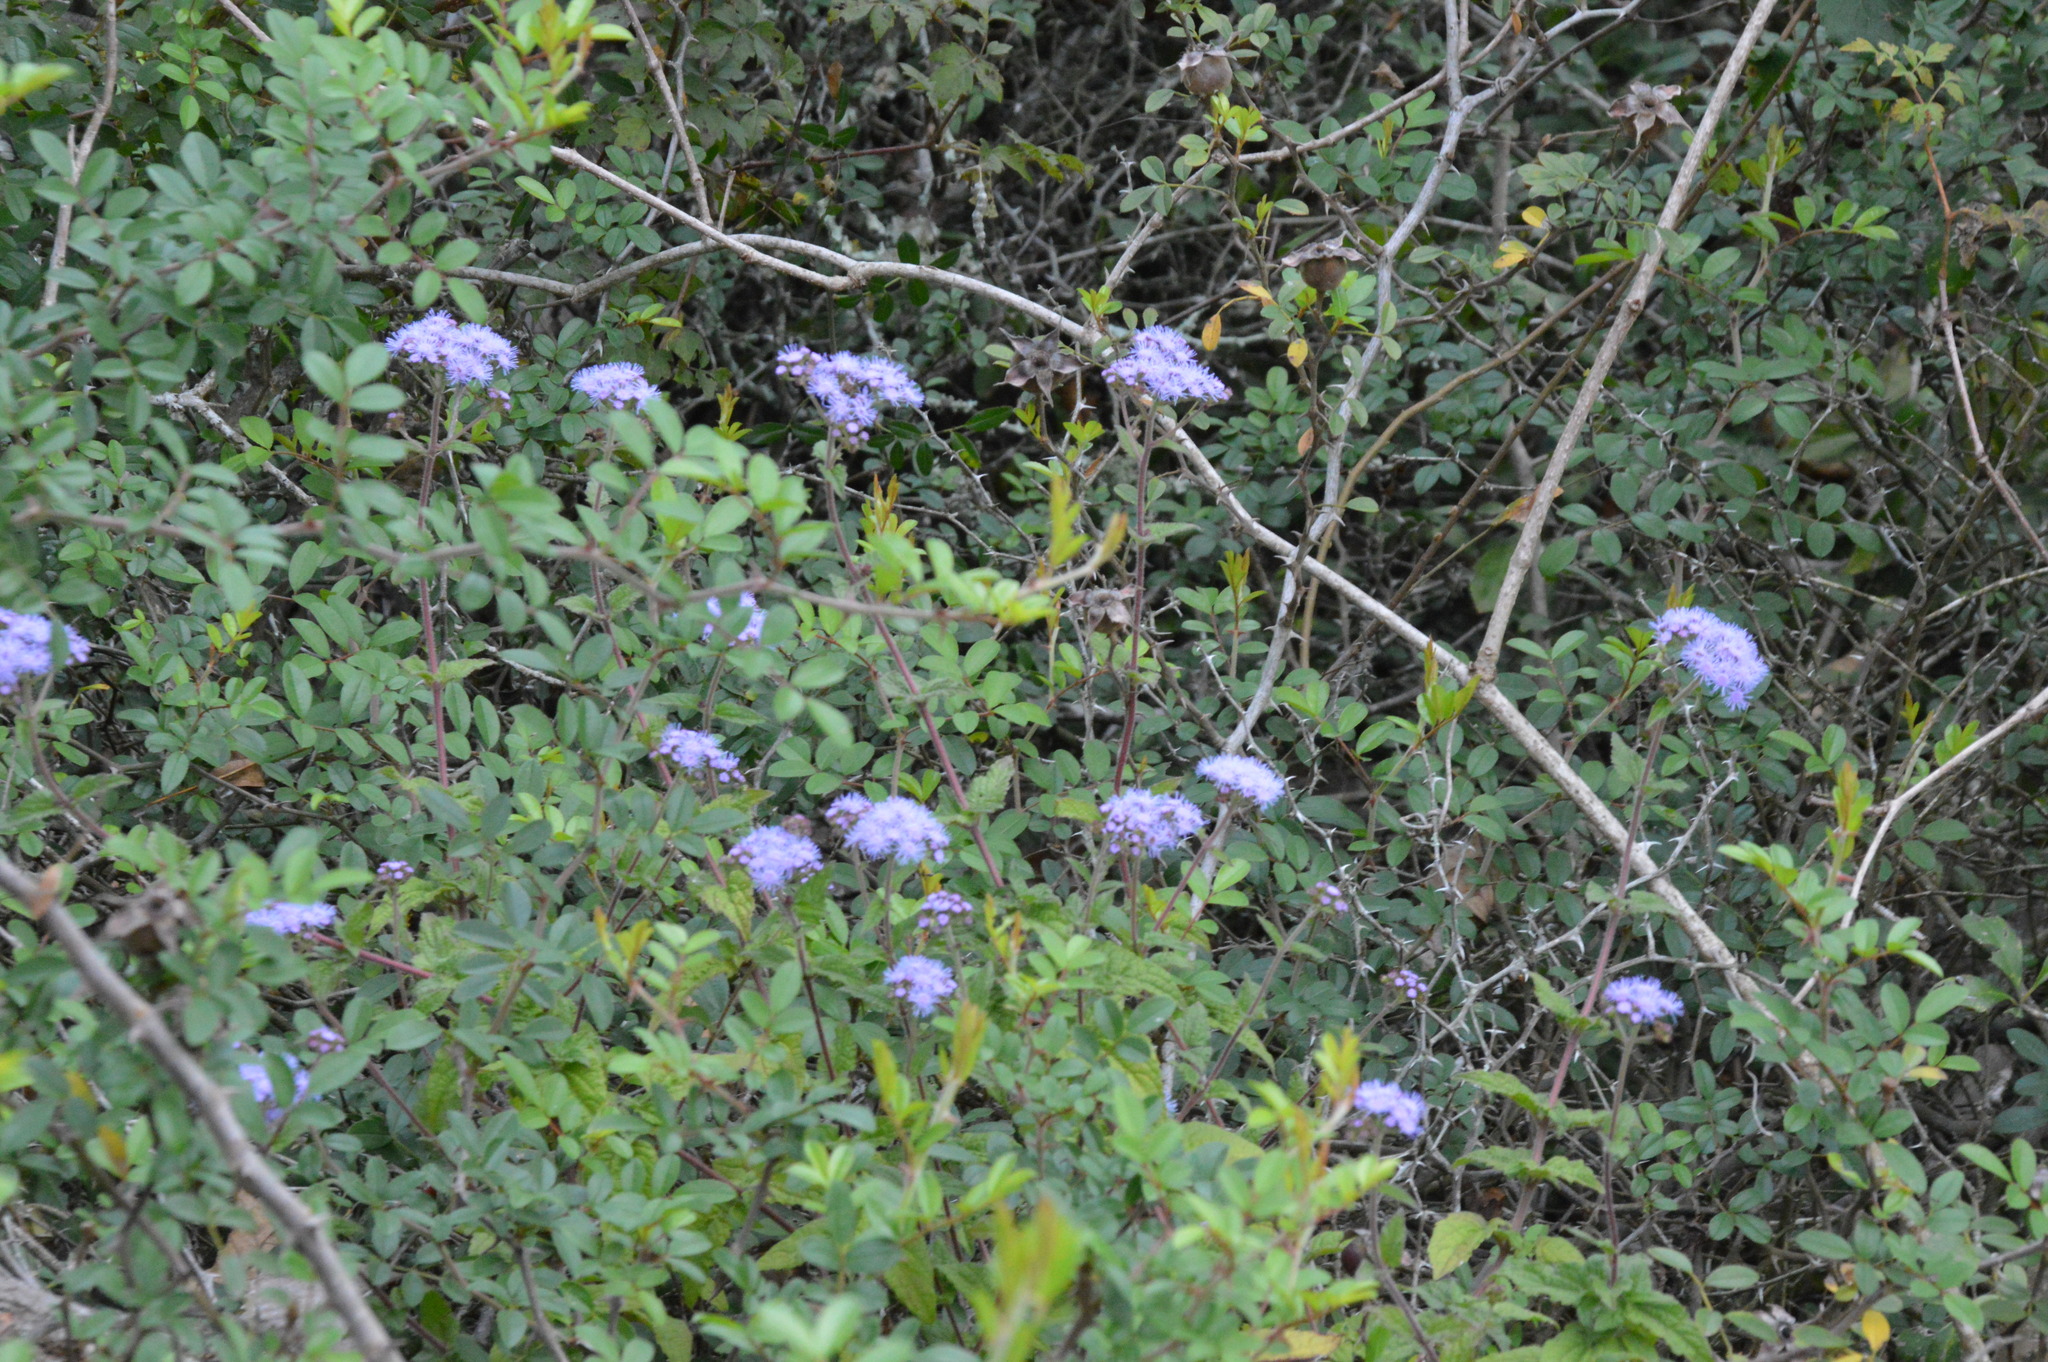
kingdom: Plantae
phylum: Tracheophyta
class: Magnoliopsida
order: Asterales
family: Asteraceae
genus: Conoclinium
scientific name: Conoclinium coelestinum
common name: Blue mistflower
